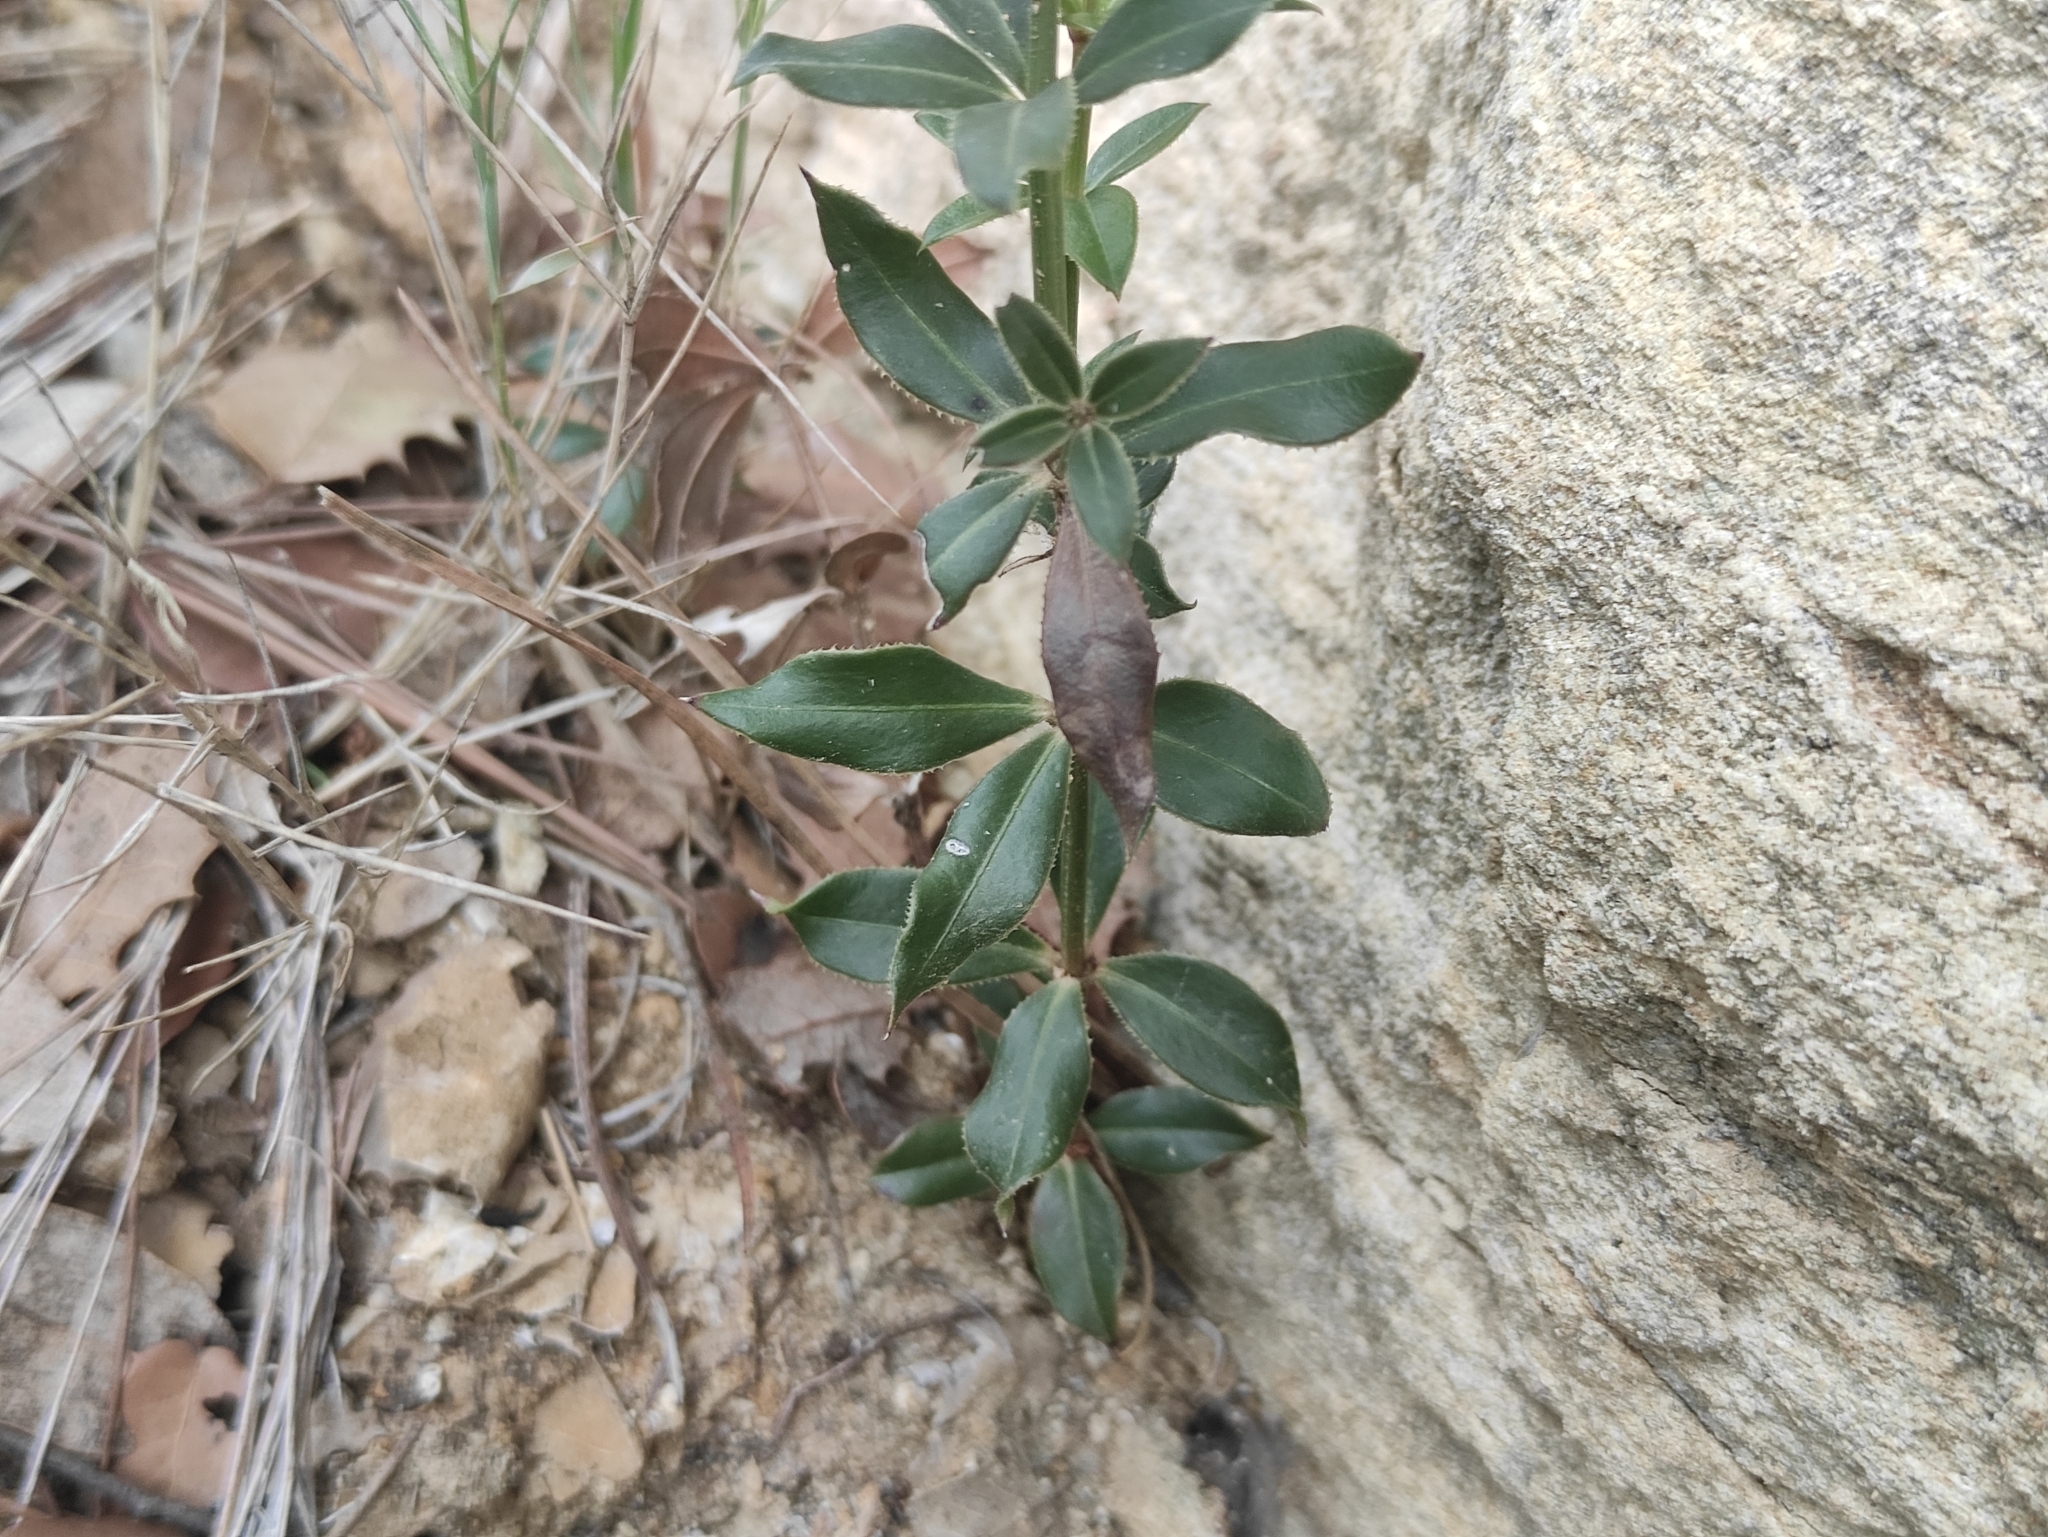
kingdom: Plantae
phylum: Tracheophyta
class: Magnoliopsida
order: Gentianales
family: Rubiaceae
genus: Rubia
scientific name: Rubia peregrina
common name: Wild madder
